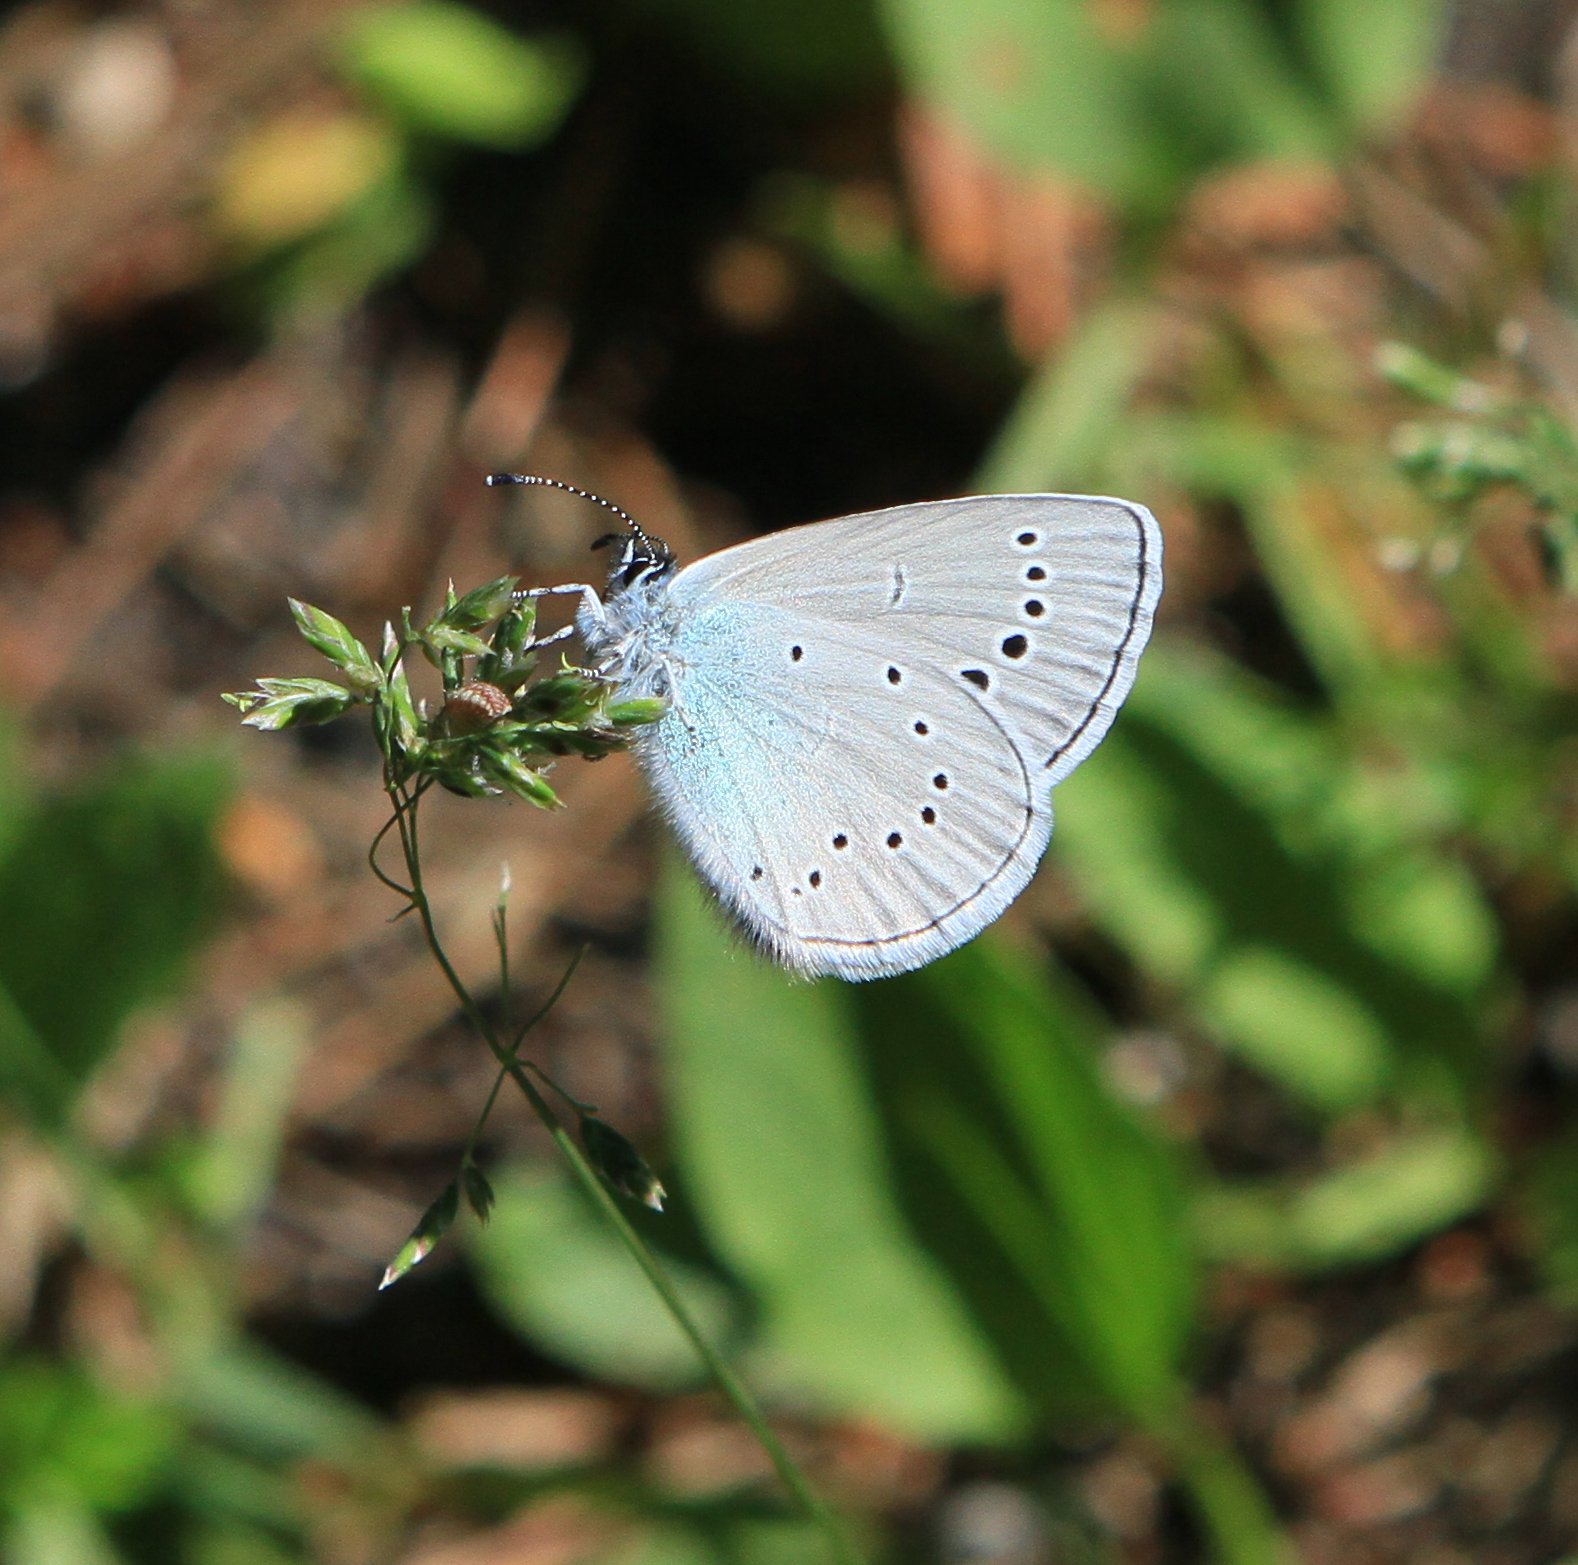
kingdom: Animalia
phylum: Arthropoda
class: Insecta
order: Lepidoptera
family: Lycaenidae
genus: Glaucopsyche
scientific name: Glaucopsyche lycormas
